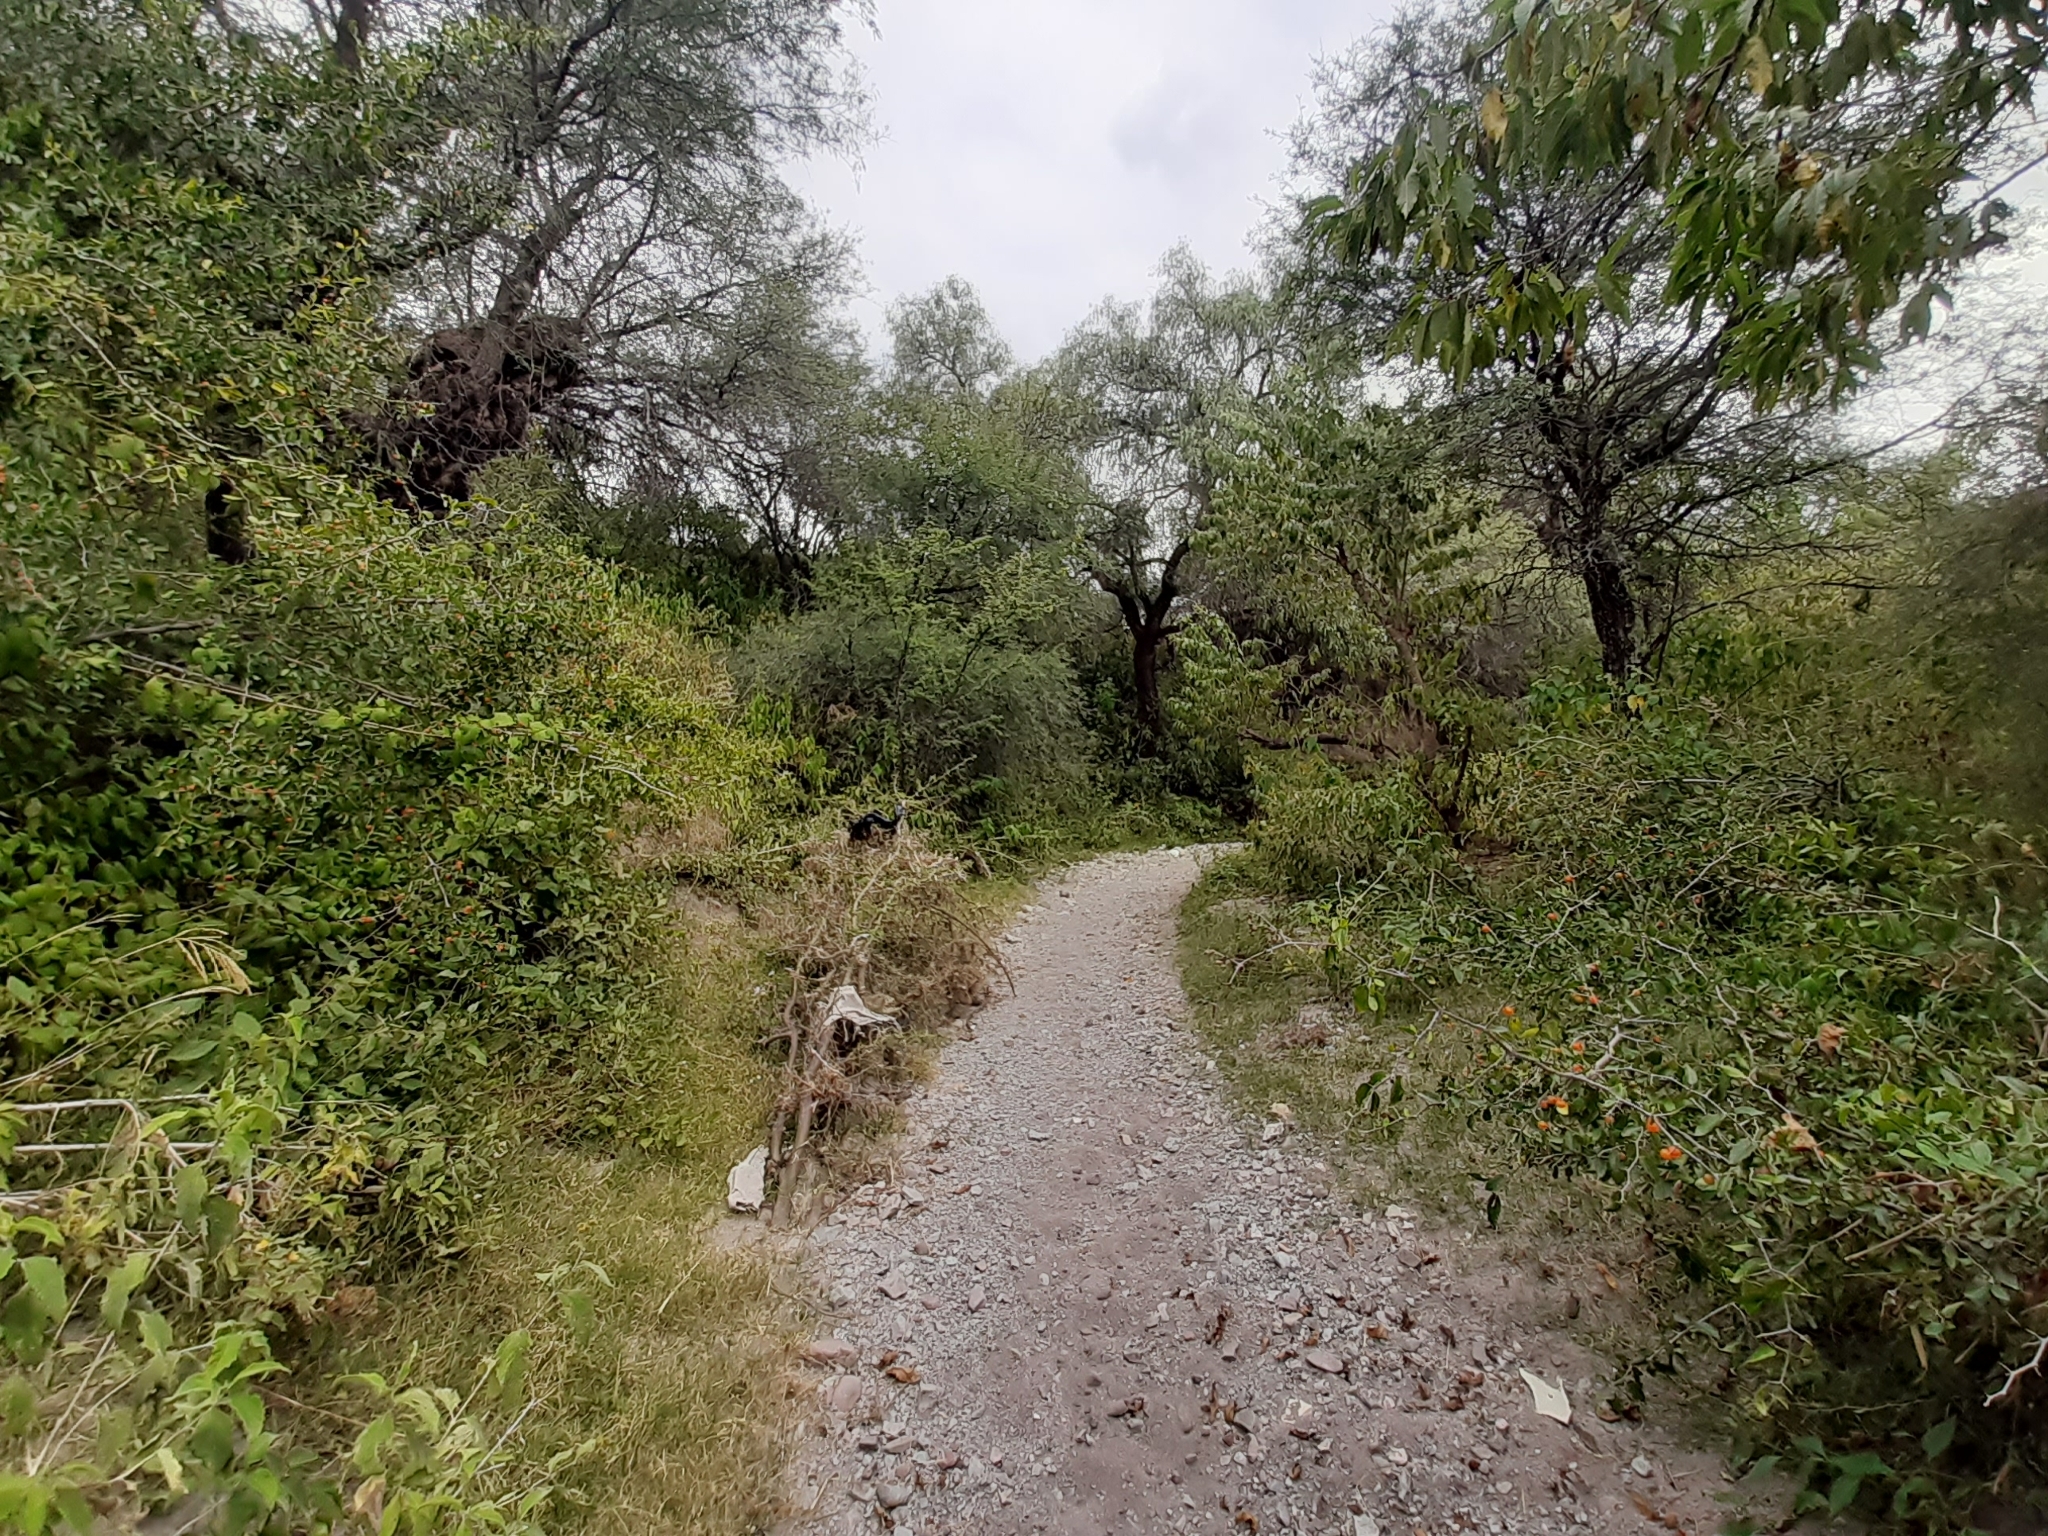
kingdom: Plantae
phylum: Tracheophyta
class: Magnoliopsida
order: Rosales
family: Cannabaceae
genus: Celtis
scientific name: Celtis pallida
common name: Desert hackberry
